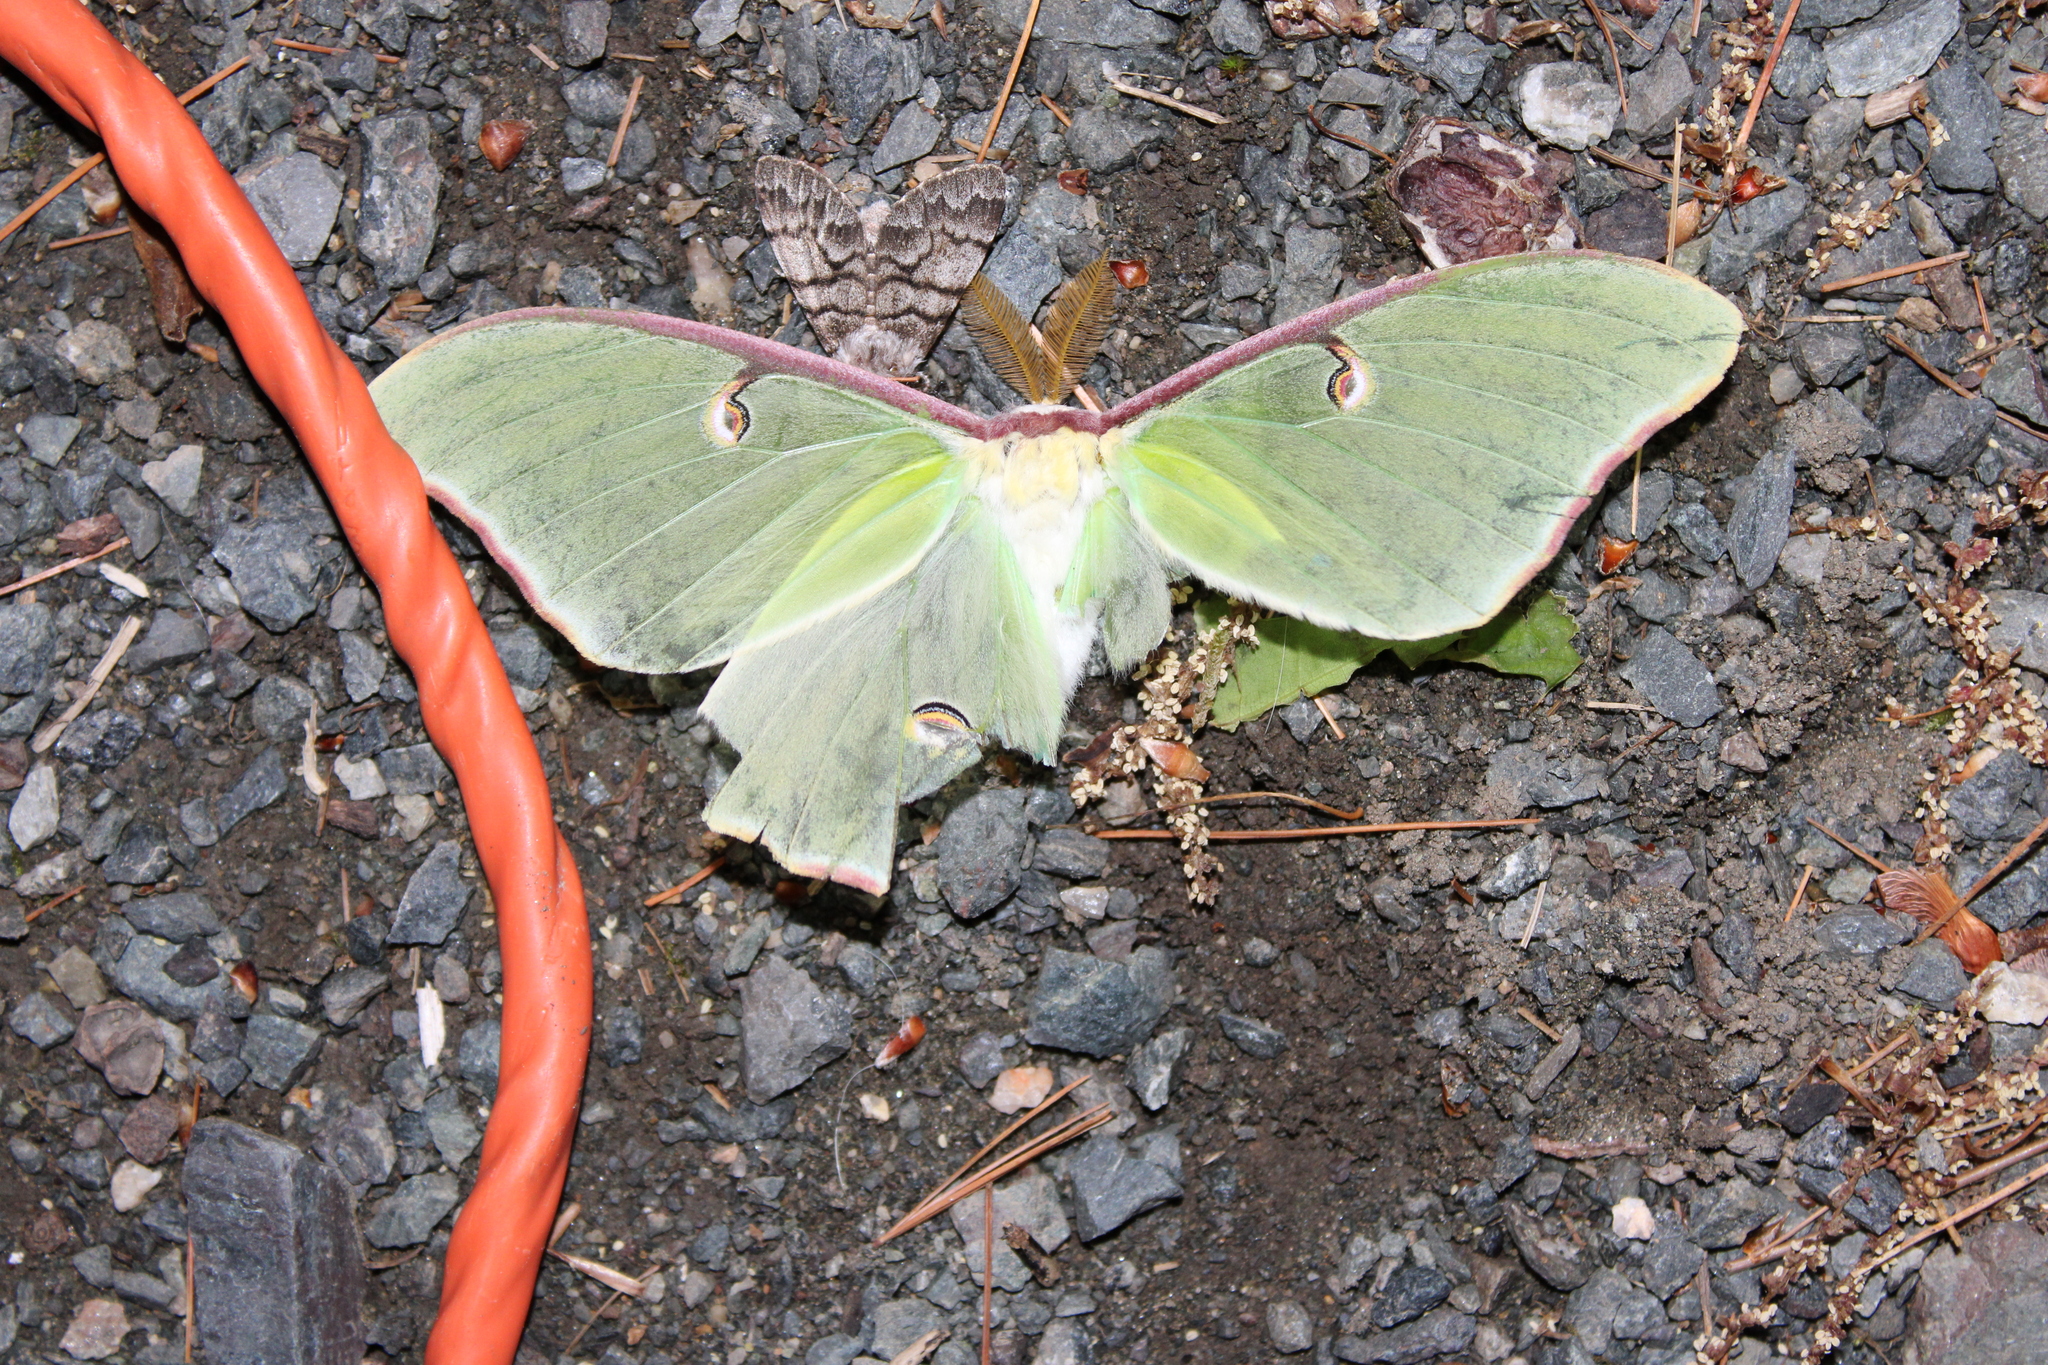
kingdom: Animalia
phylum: Arthropoda
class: Insecta
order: Lepidoptera
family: Saturniidae
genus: Actias
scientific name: Actias luna
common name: Luna moth
